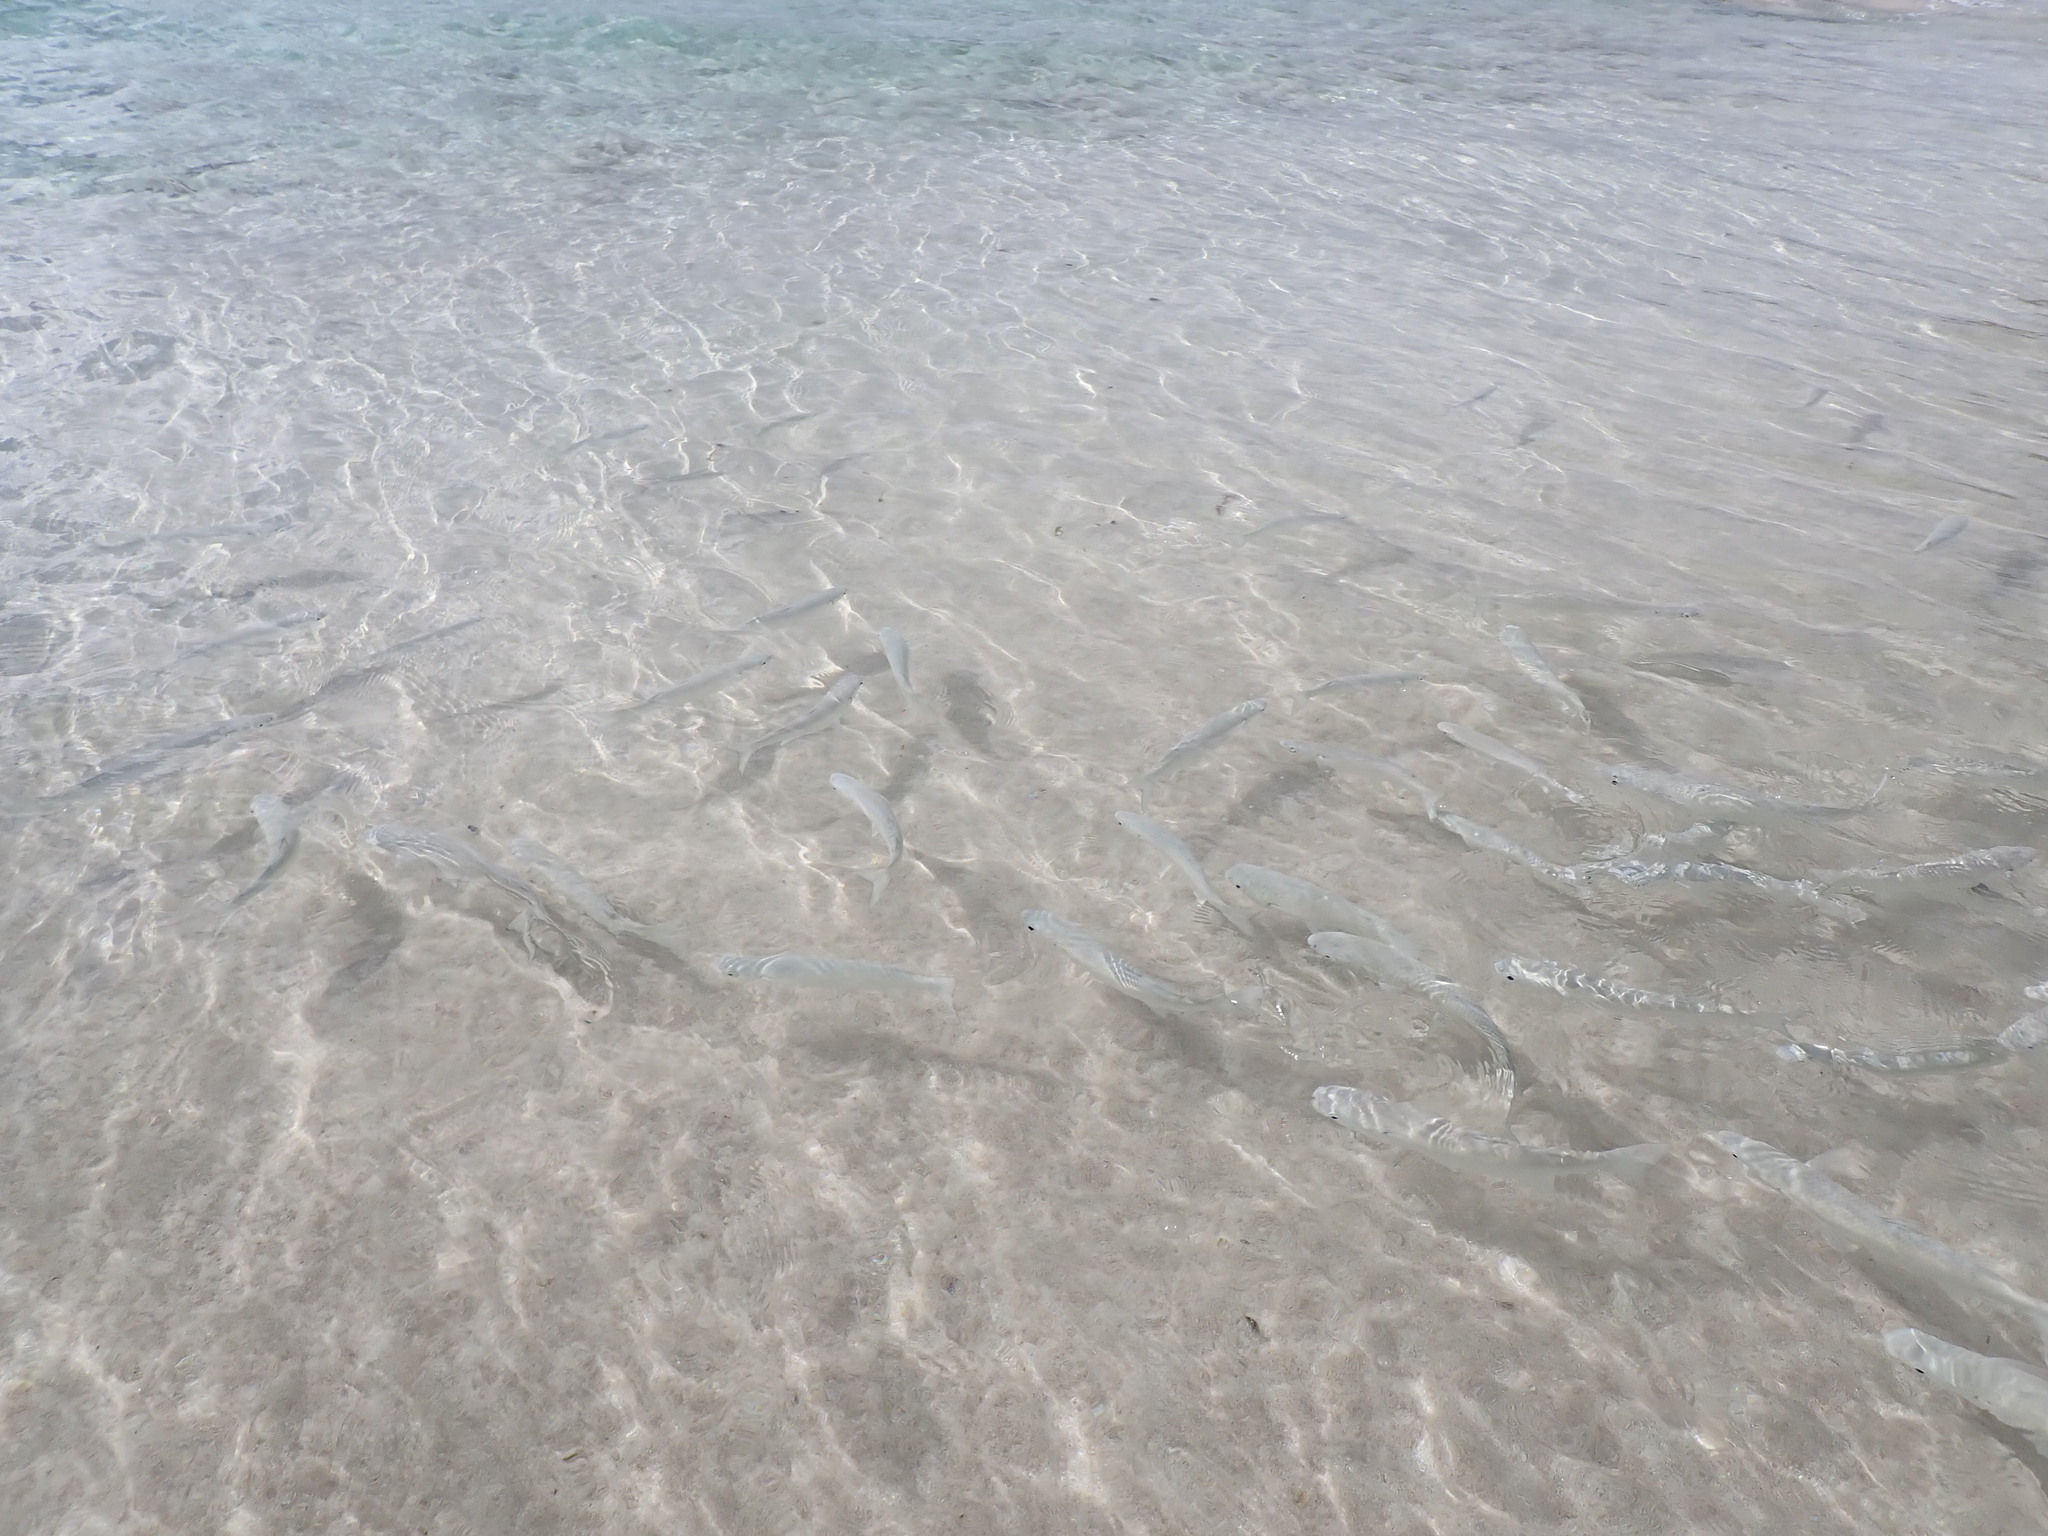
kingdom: Animalia
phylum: Chordata
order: Mugiliformes
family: Mugilidae
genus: Myxus
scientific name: Myxus elongatus
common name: Sand grey mullet
